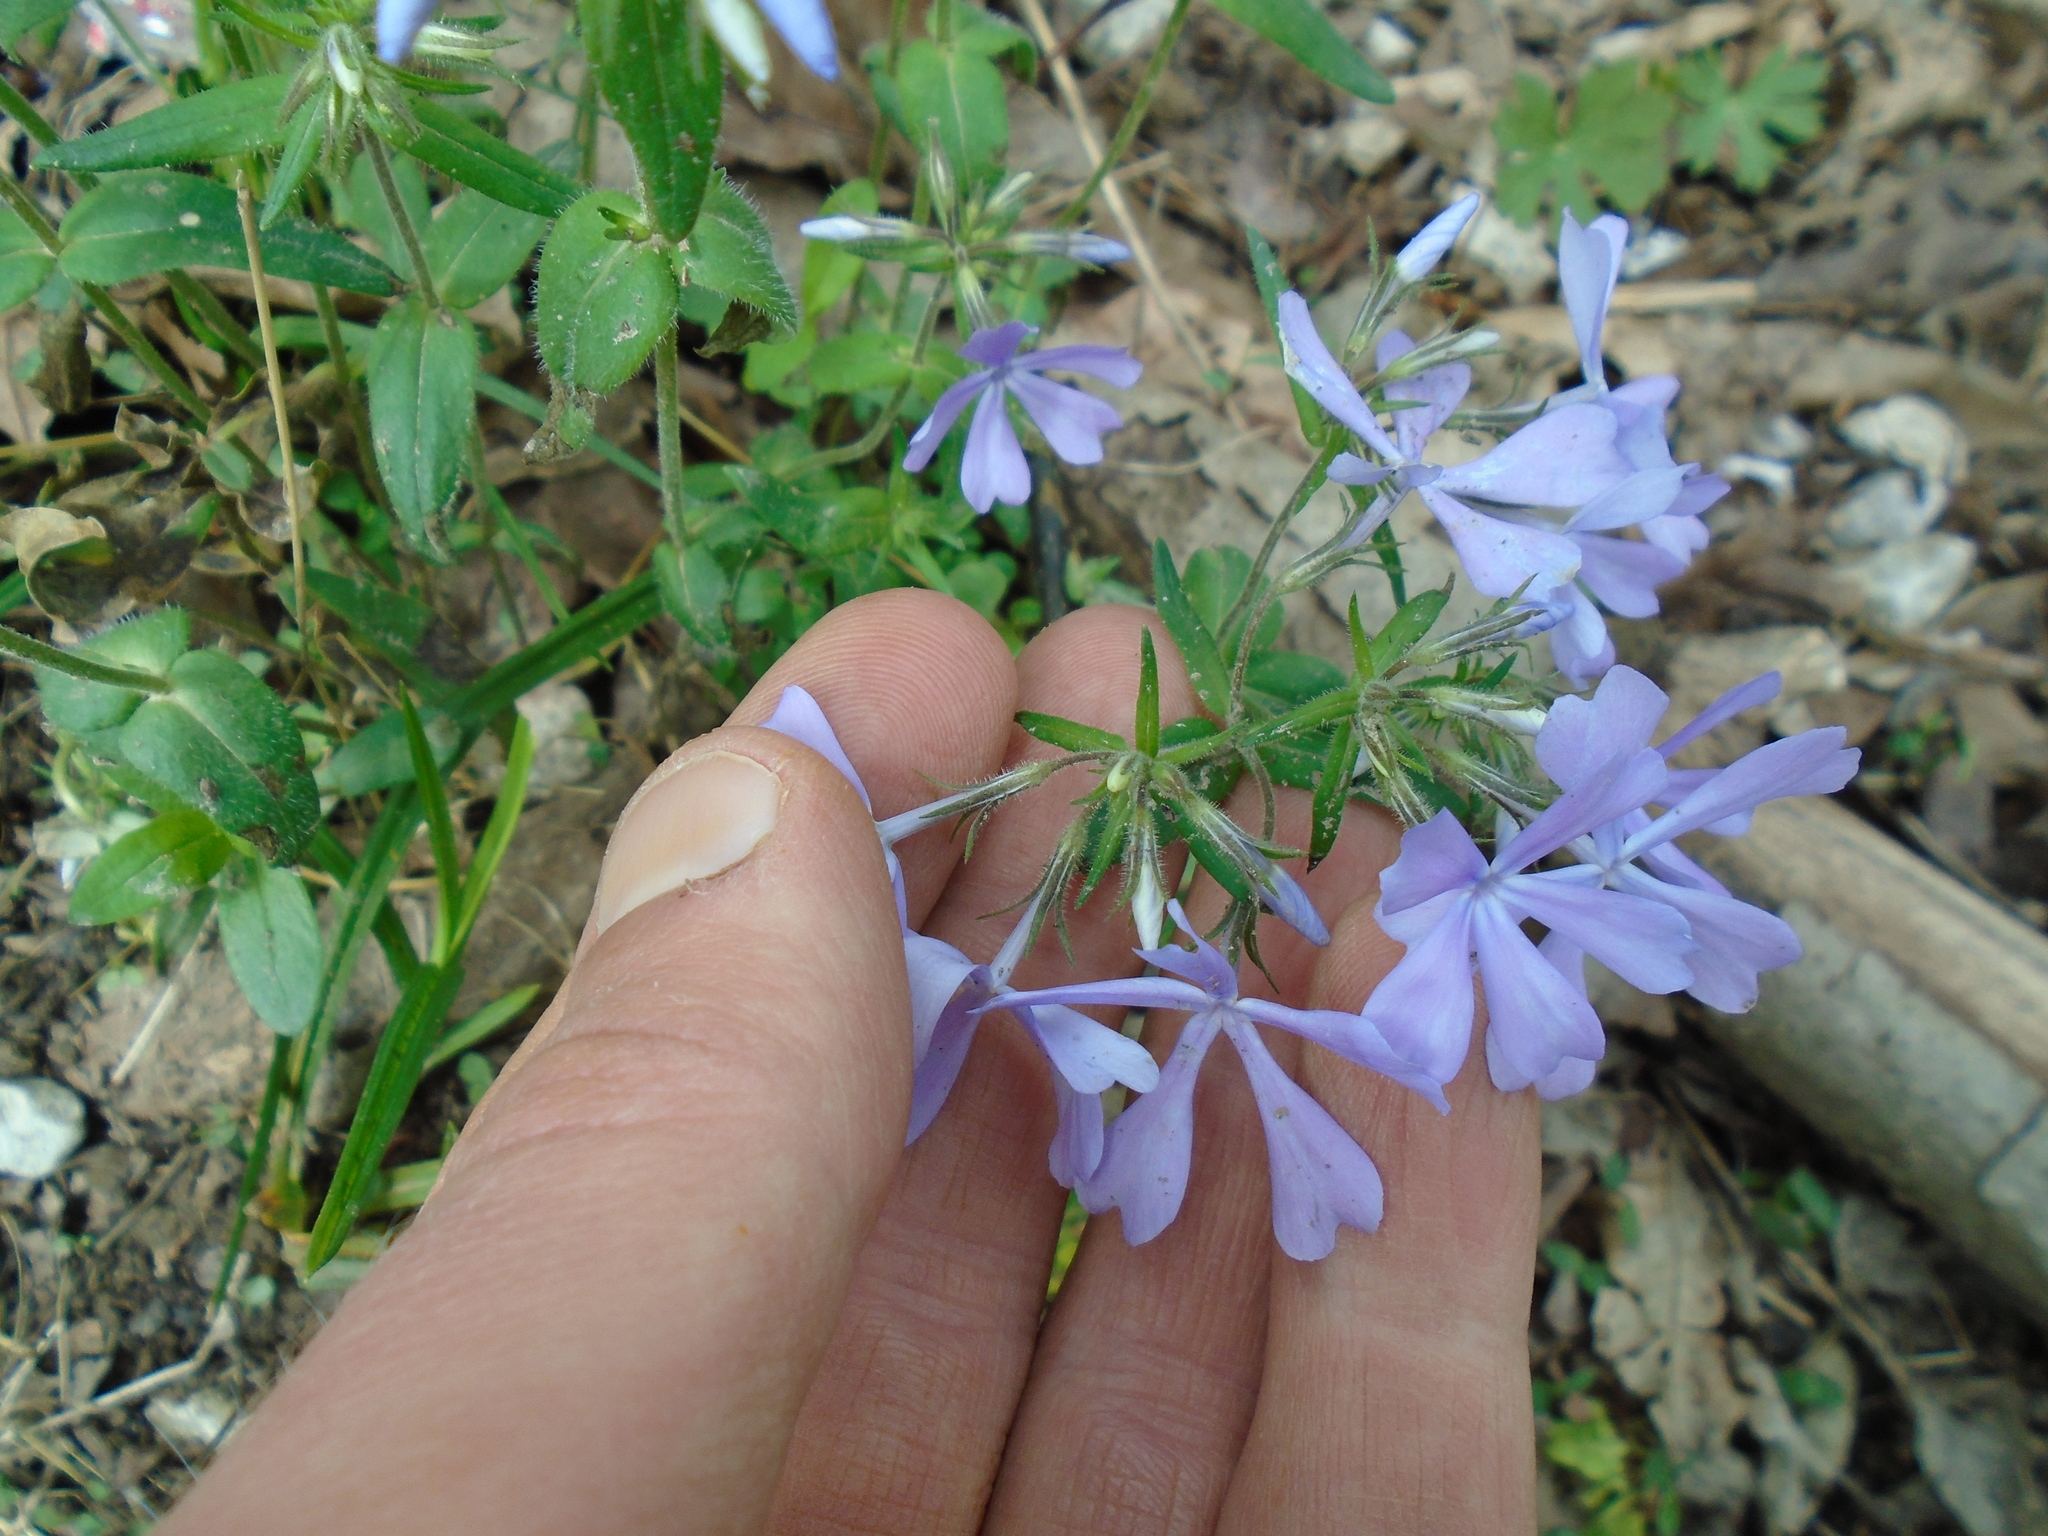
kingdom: Plantae
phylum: Tracheophyta
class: Magnoliopsida
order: Ericales
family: Polemoniaceae
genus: Phlox
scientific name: Phlox divaricata
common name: Blue phlox
